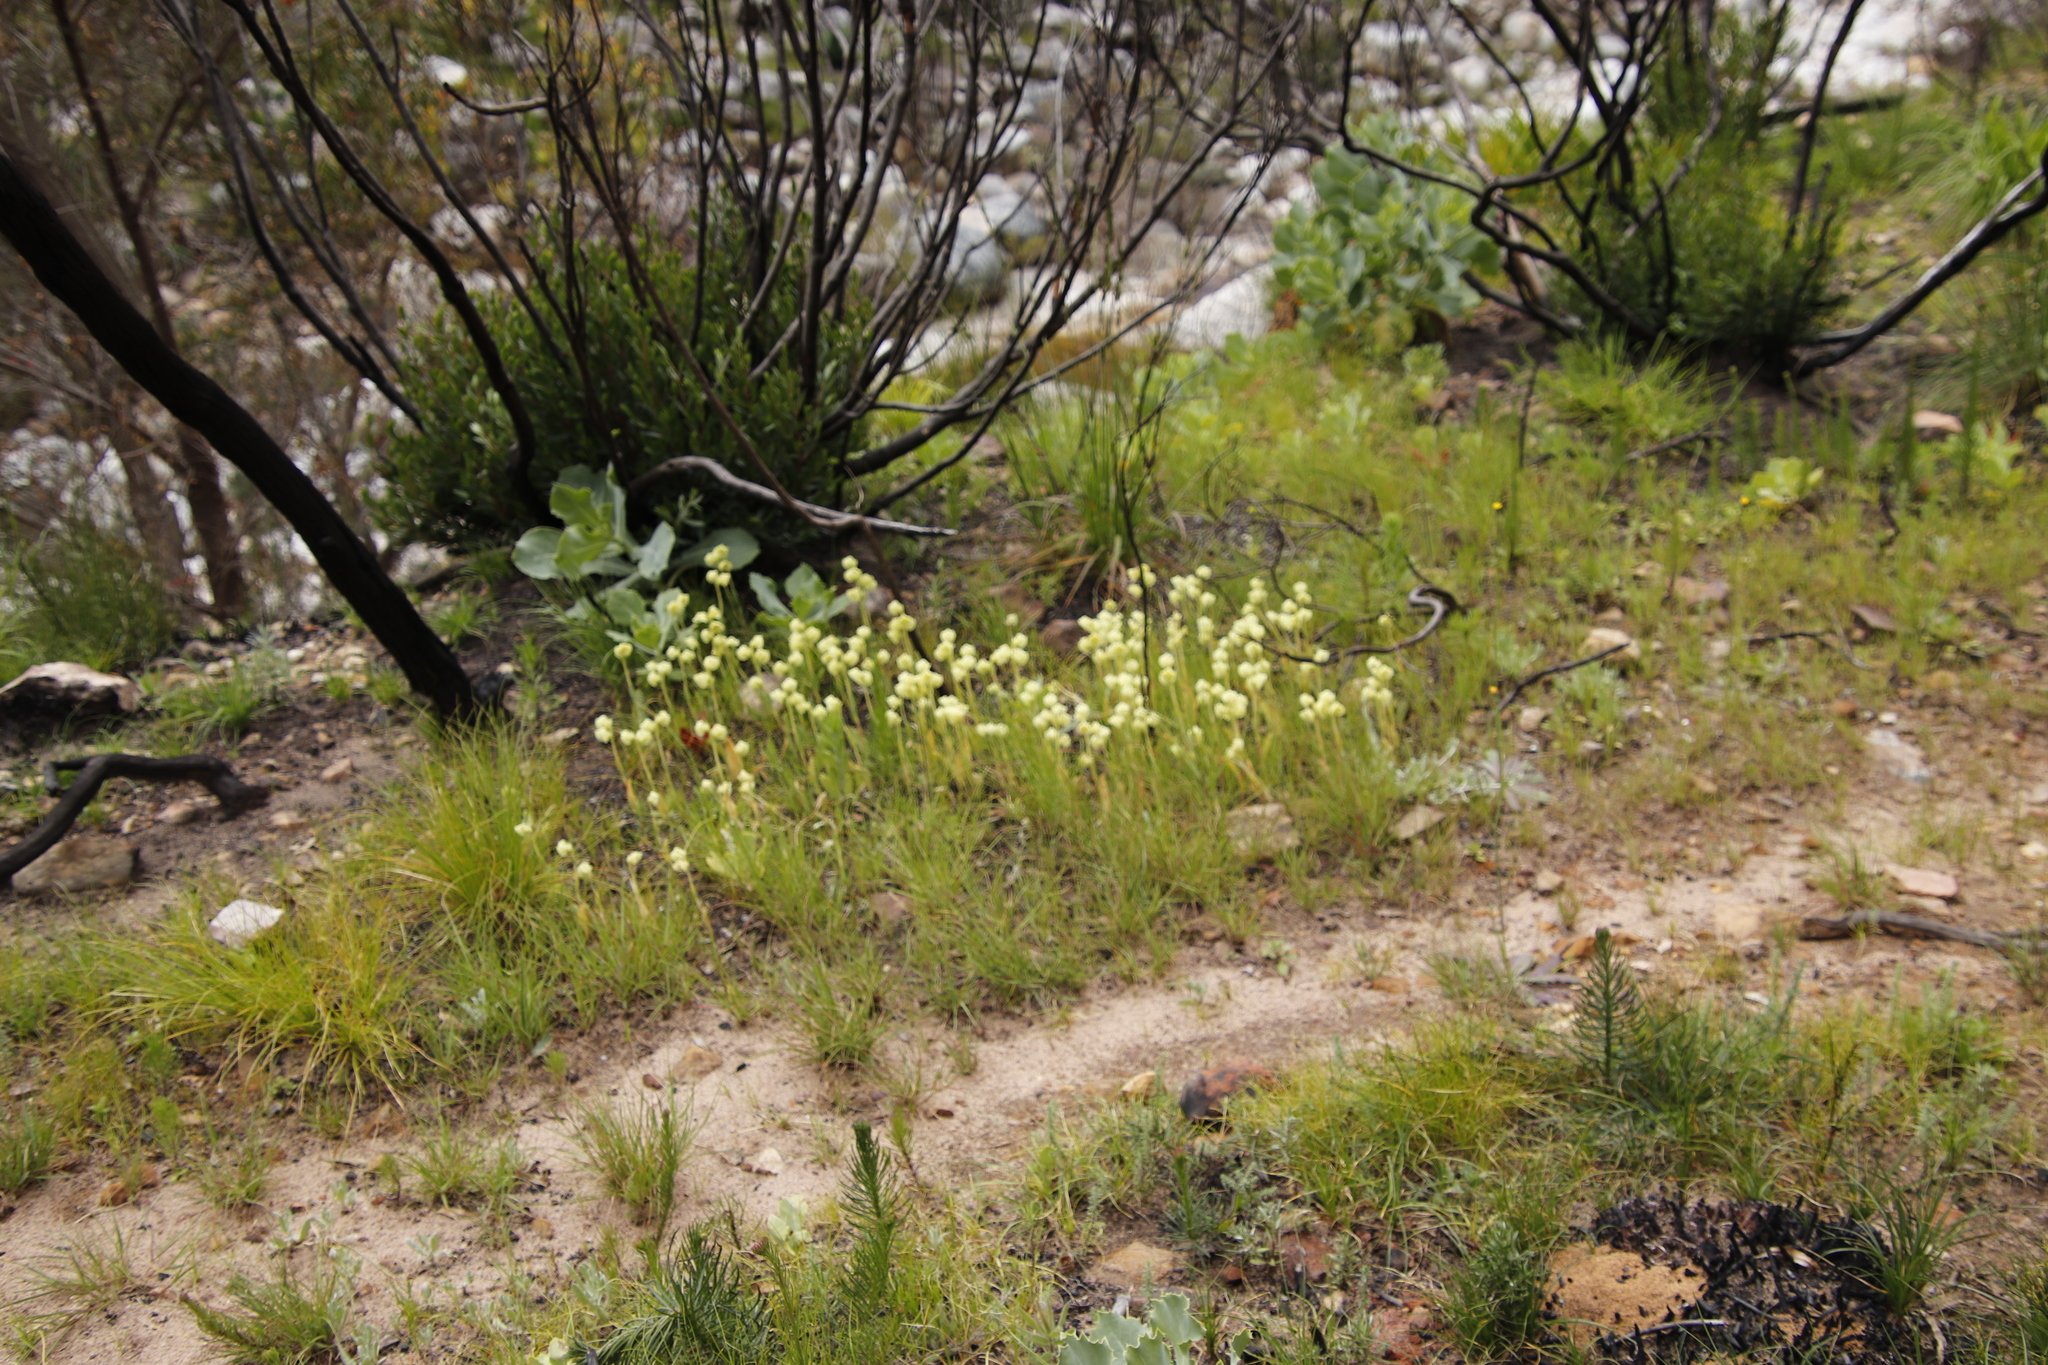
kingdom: Plantae
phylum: Tracheophyta
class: Liliopsida
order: Asparagales
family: Orchidaceae
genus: Pterygodium
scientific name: Pterygodium catholicum
